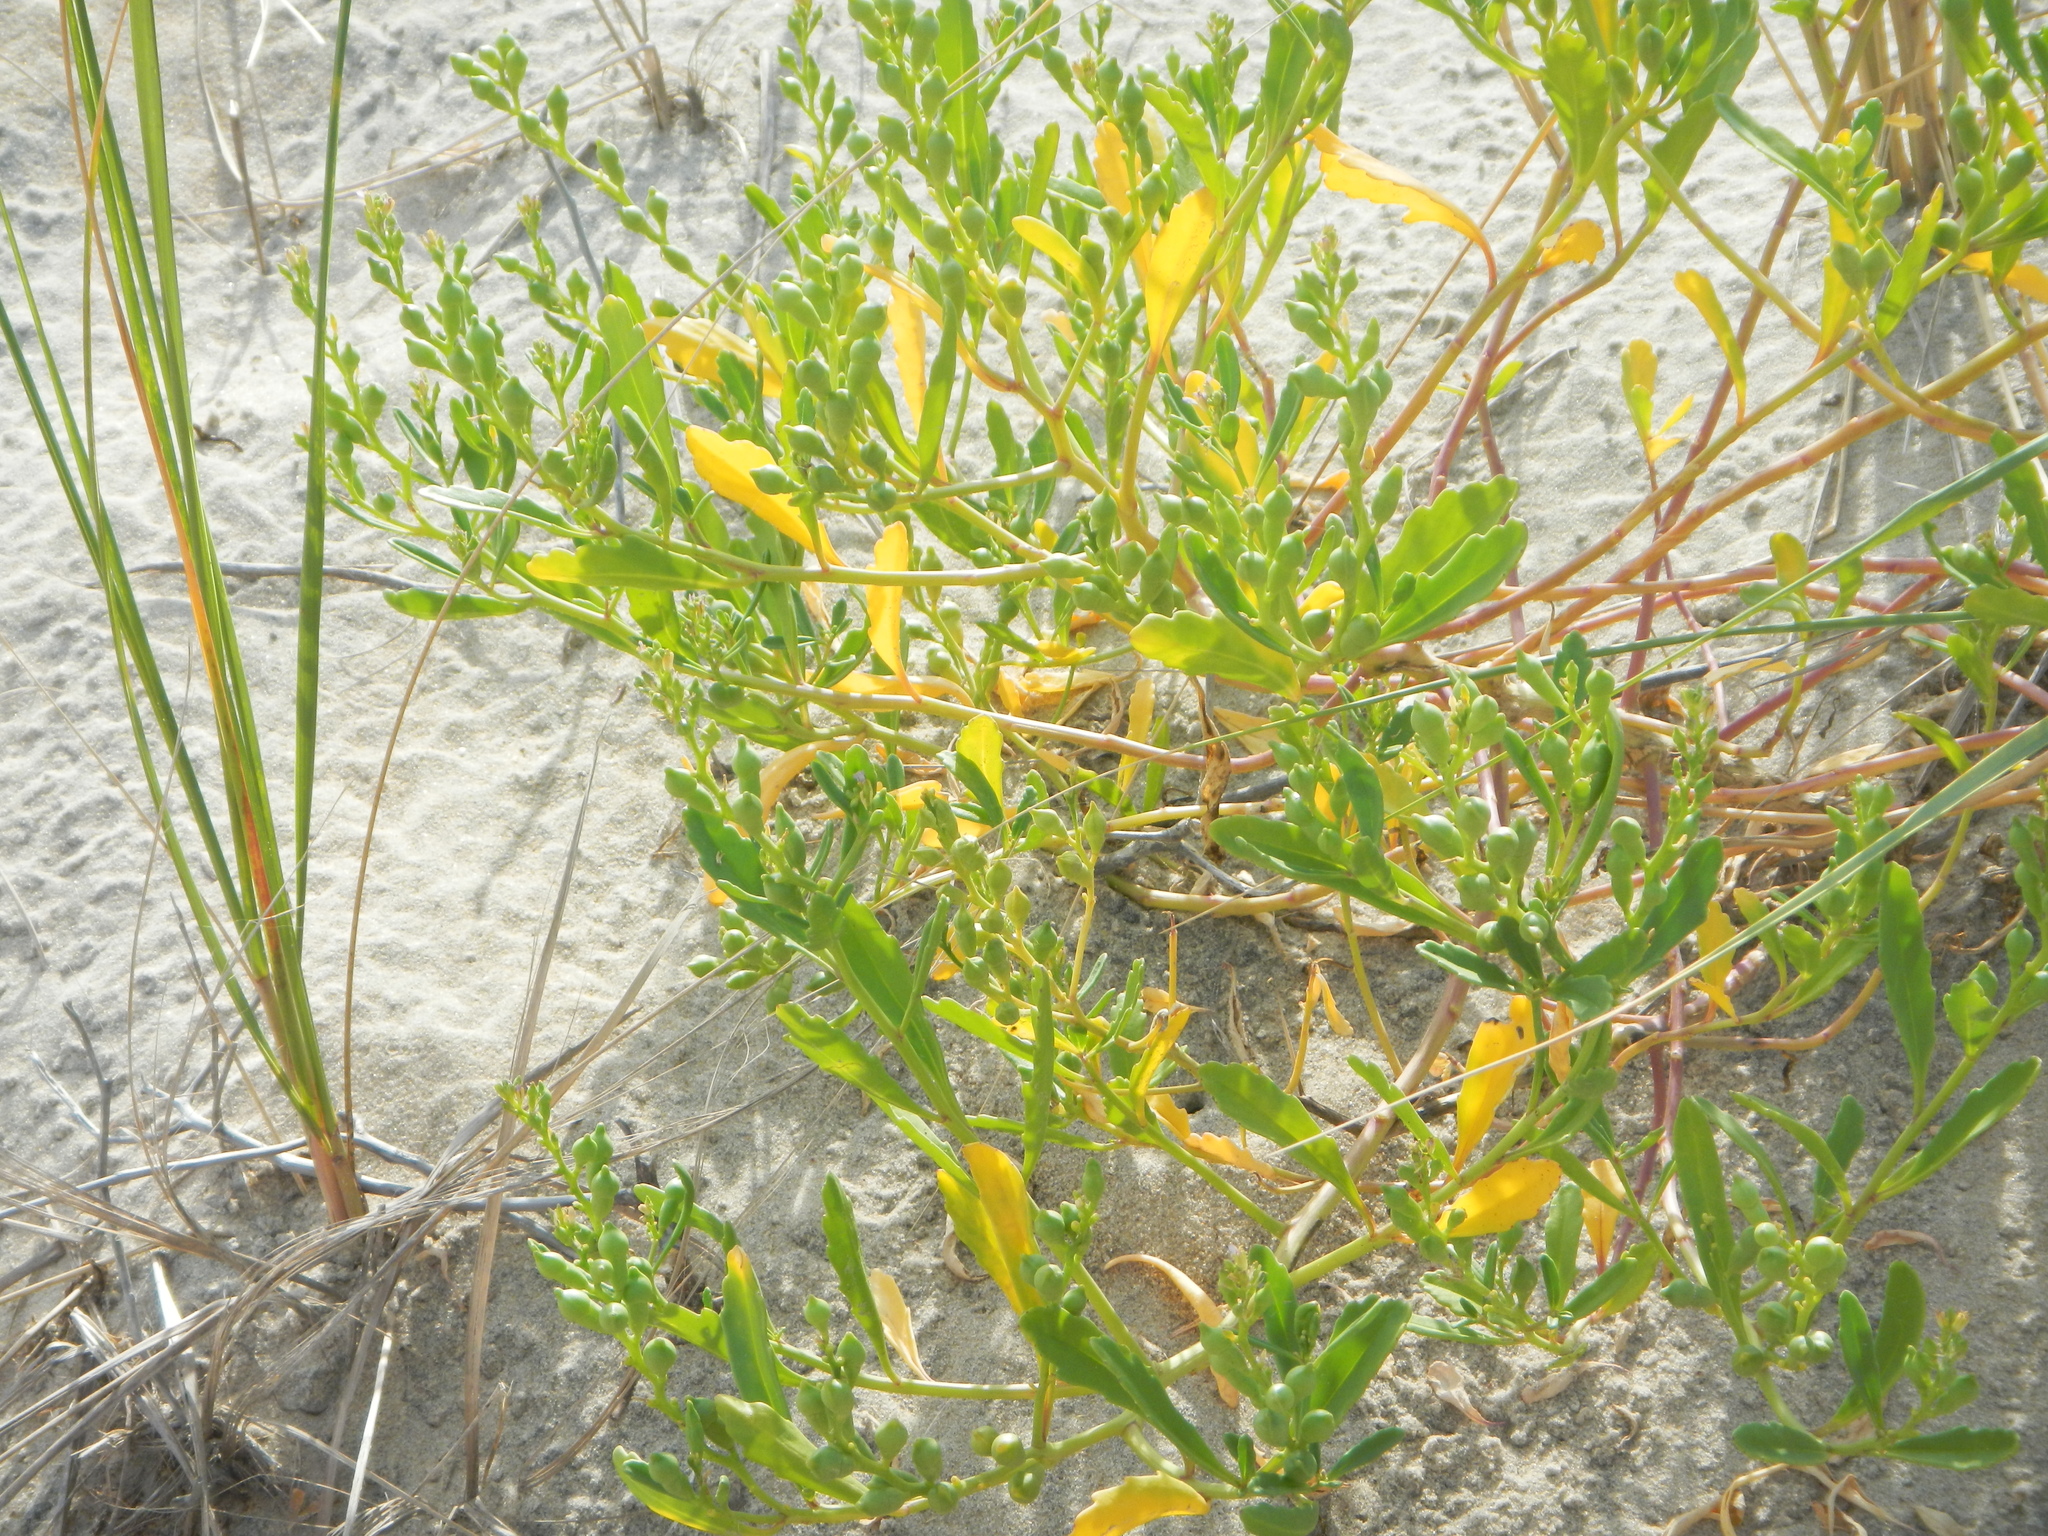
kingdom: Plantae
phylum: Tracheophyta
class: Magnoliopsida
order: Brassicales
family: Brassicaceae
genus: Cakile
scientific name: Cakile edentula
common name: American sea rocket
